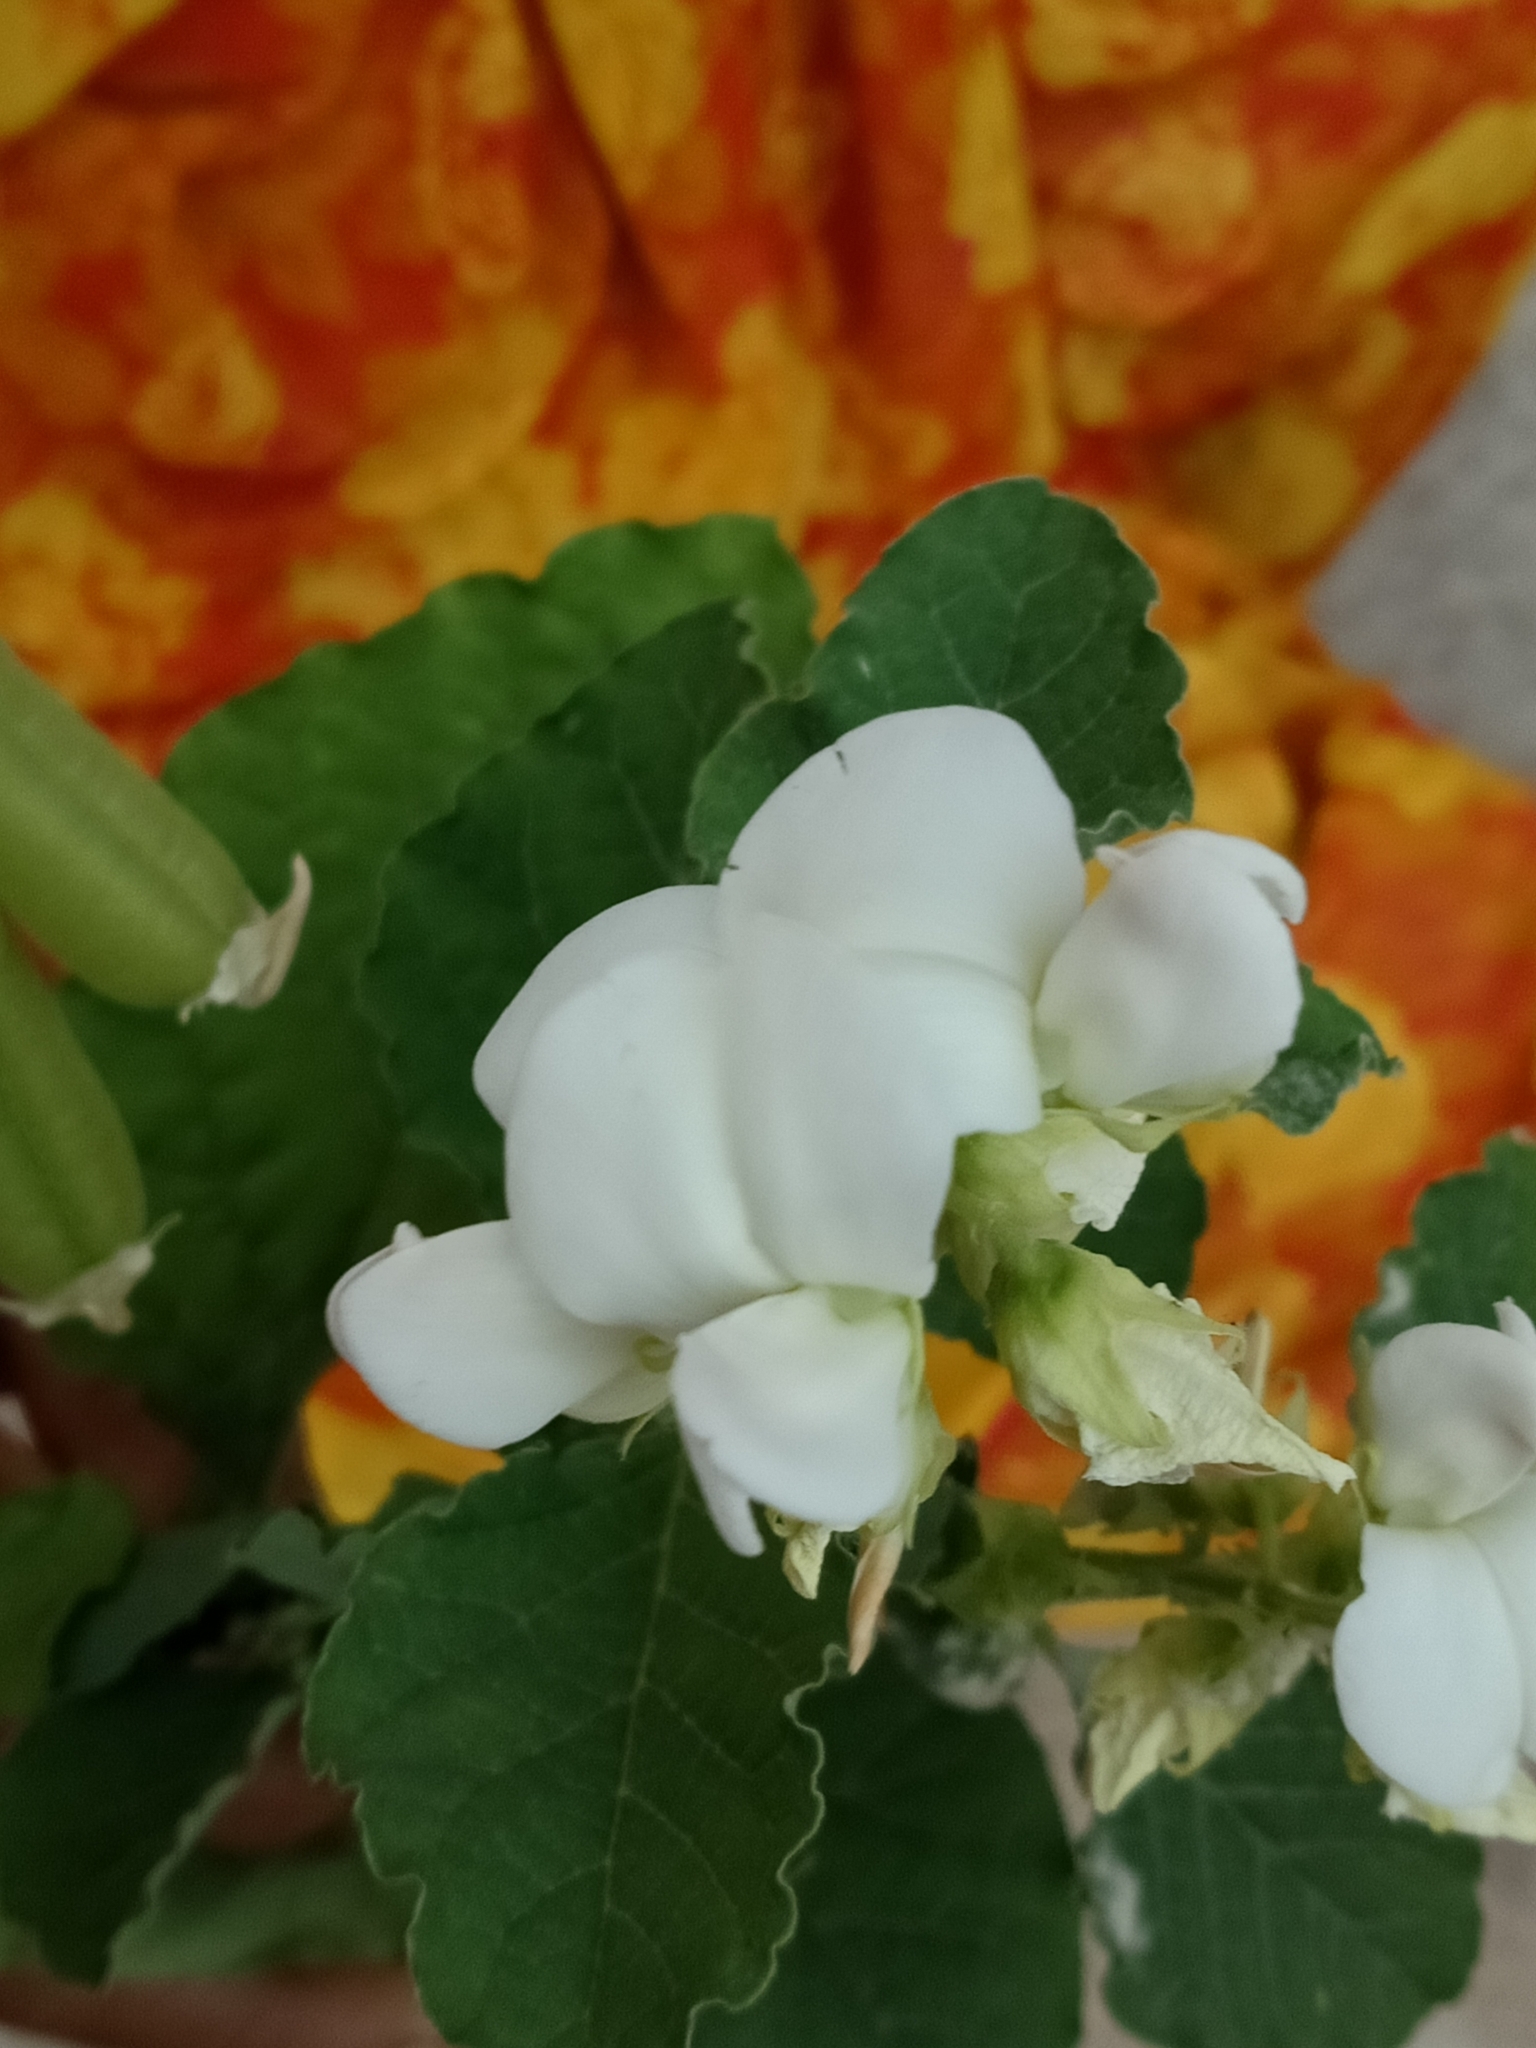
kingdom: Plantae
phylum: Tracheophyta
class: Magnoliopsida
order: Fabales
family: Fabaceae
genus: Crotalaria
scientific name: Crotalaria verrucosa
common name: Blue rattlesnake
